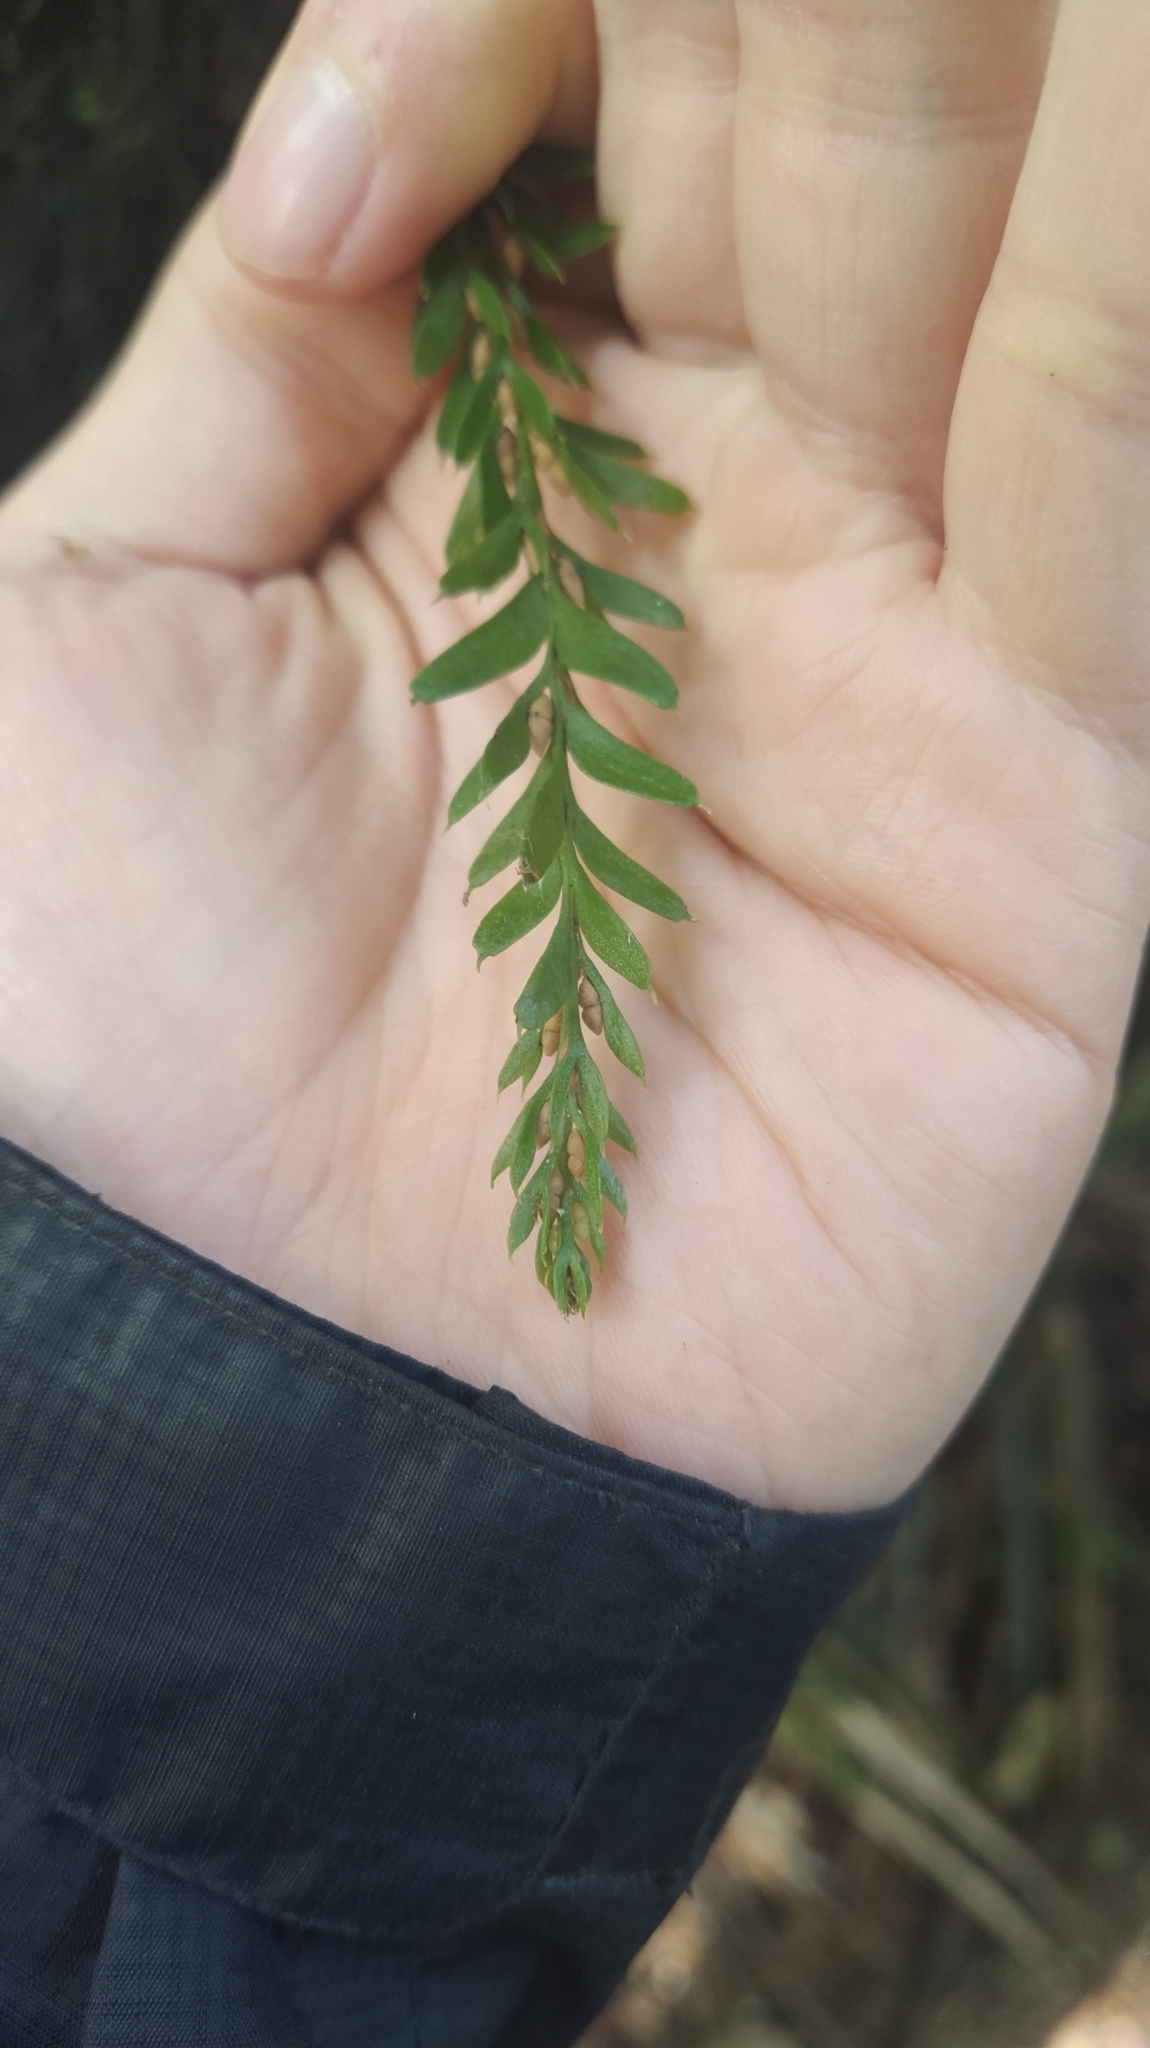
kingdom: Plantae
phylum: Tracheophyta
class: Polypodiopsida
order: Psilotales
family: Psilotaceae
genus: Tmesipteris
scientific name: Tmesipteris tannensis
